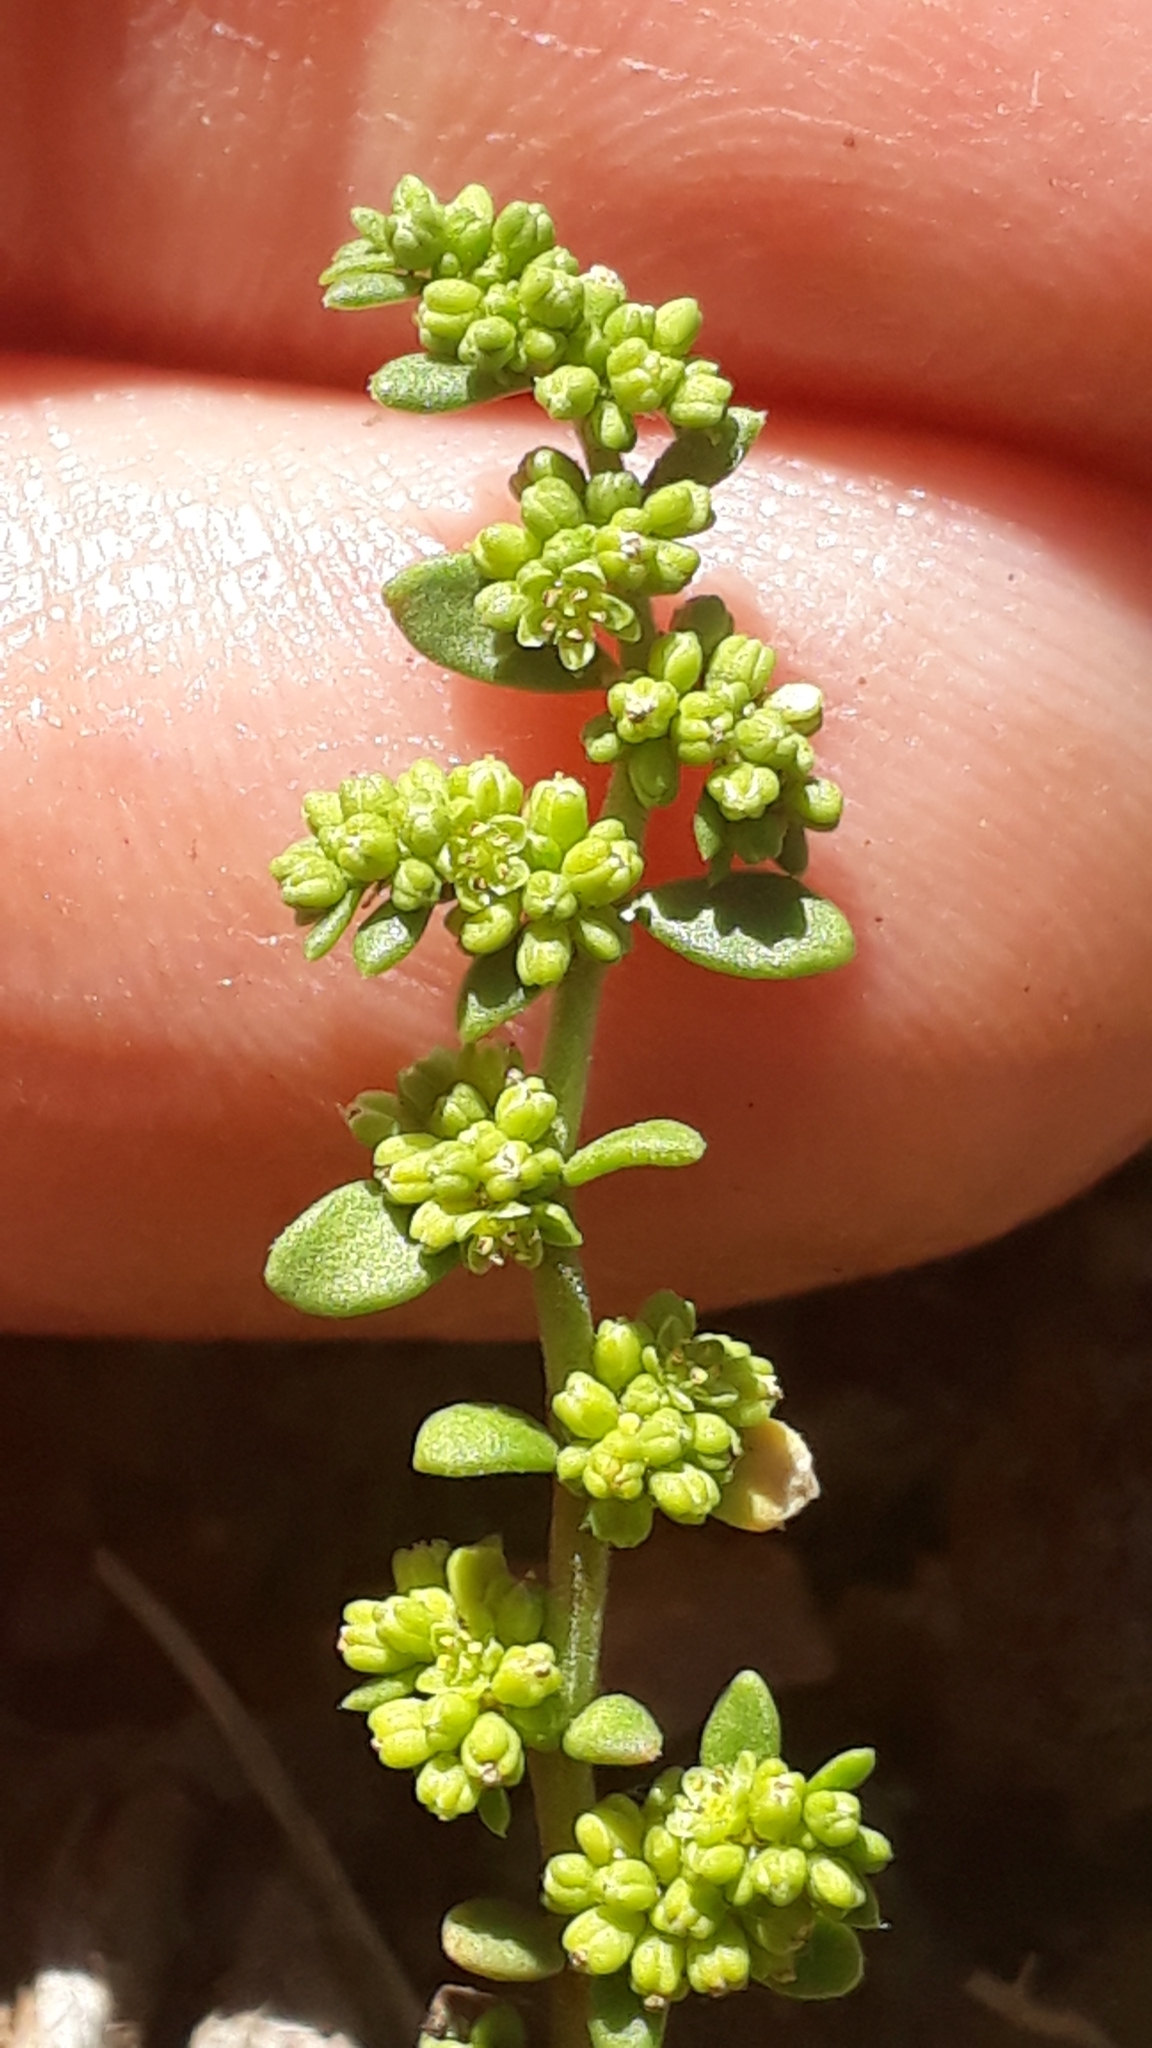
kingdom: Plantae
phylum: Tracheophyta
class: Magnoliopsida
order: Caryophyllales
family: Caryophyllaceae
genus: Herniaria
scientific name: Herniaria glabra
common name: Smooth rupturewort
